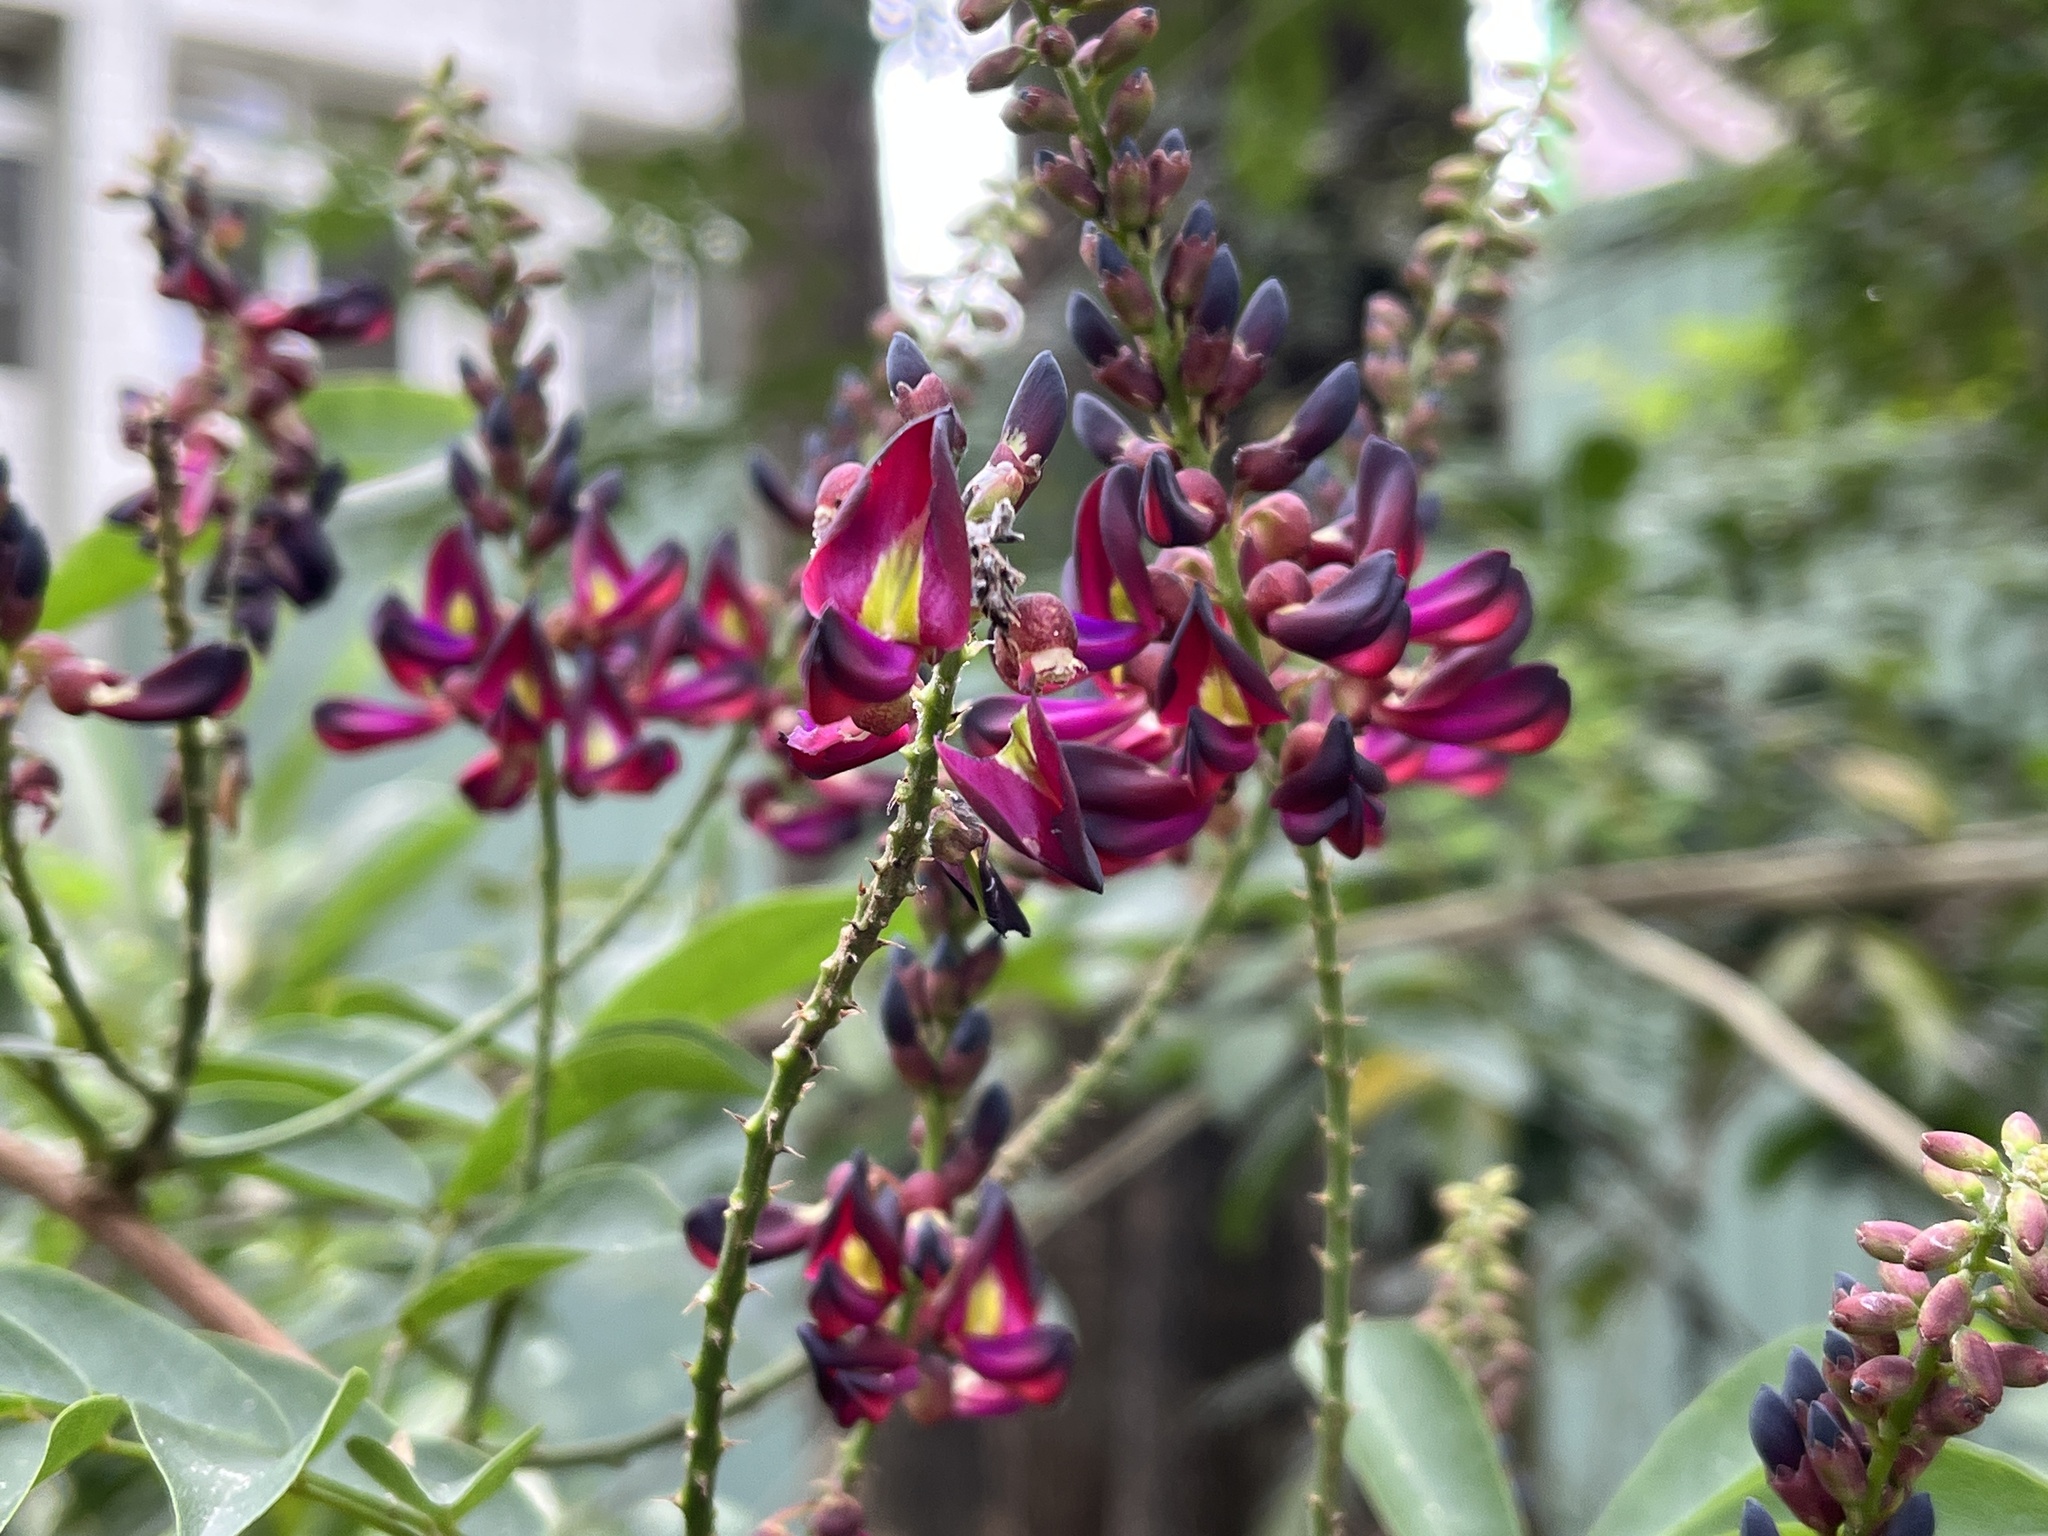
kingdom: Plantae
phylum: Tracheophyta
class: Magnoliopsida
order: Fabales
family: Fabaceae
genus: Wisteriopsis
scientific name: Wisteriopsis reticulata
